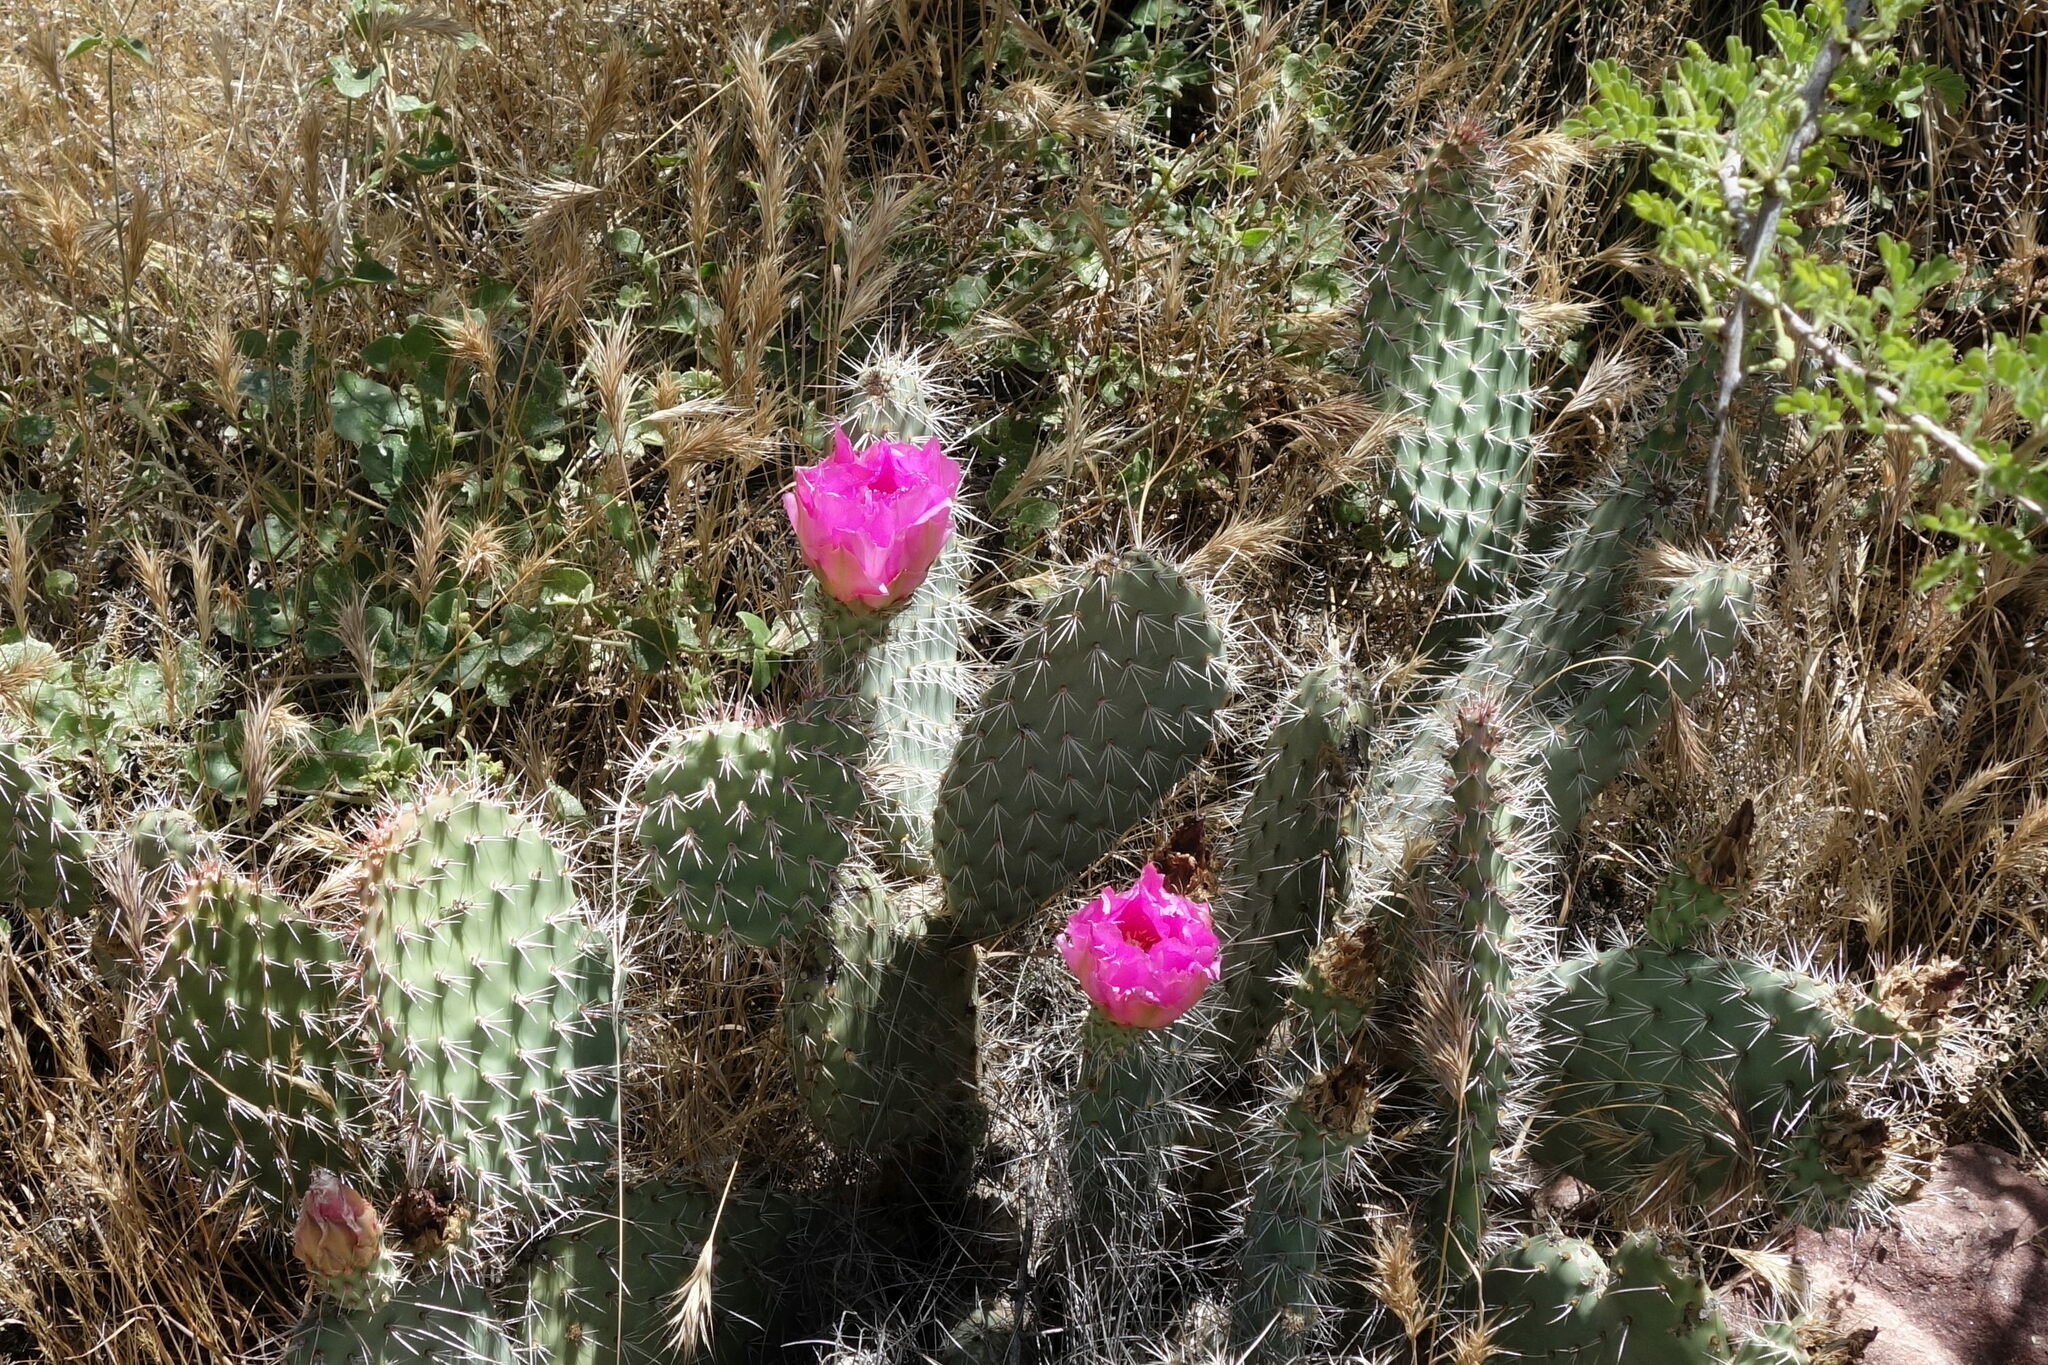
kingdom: Plantae
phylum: Tracheophyta
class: Magnoliopsida
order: Caryophyllales
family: Cactaceae
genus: Opuntia
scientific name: Opuntia polyacantha
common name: Plains prickly-pear
